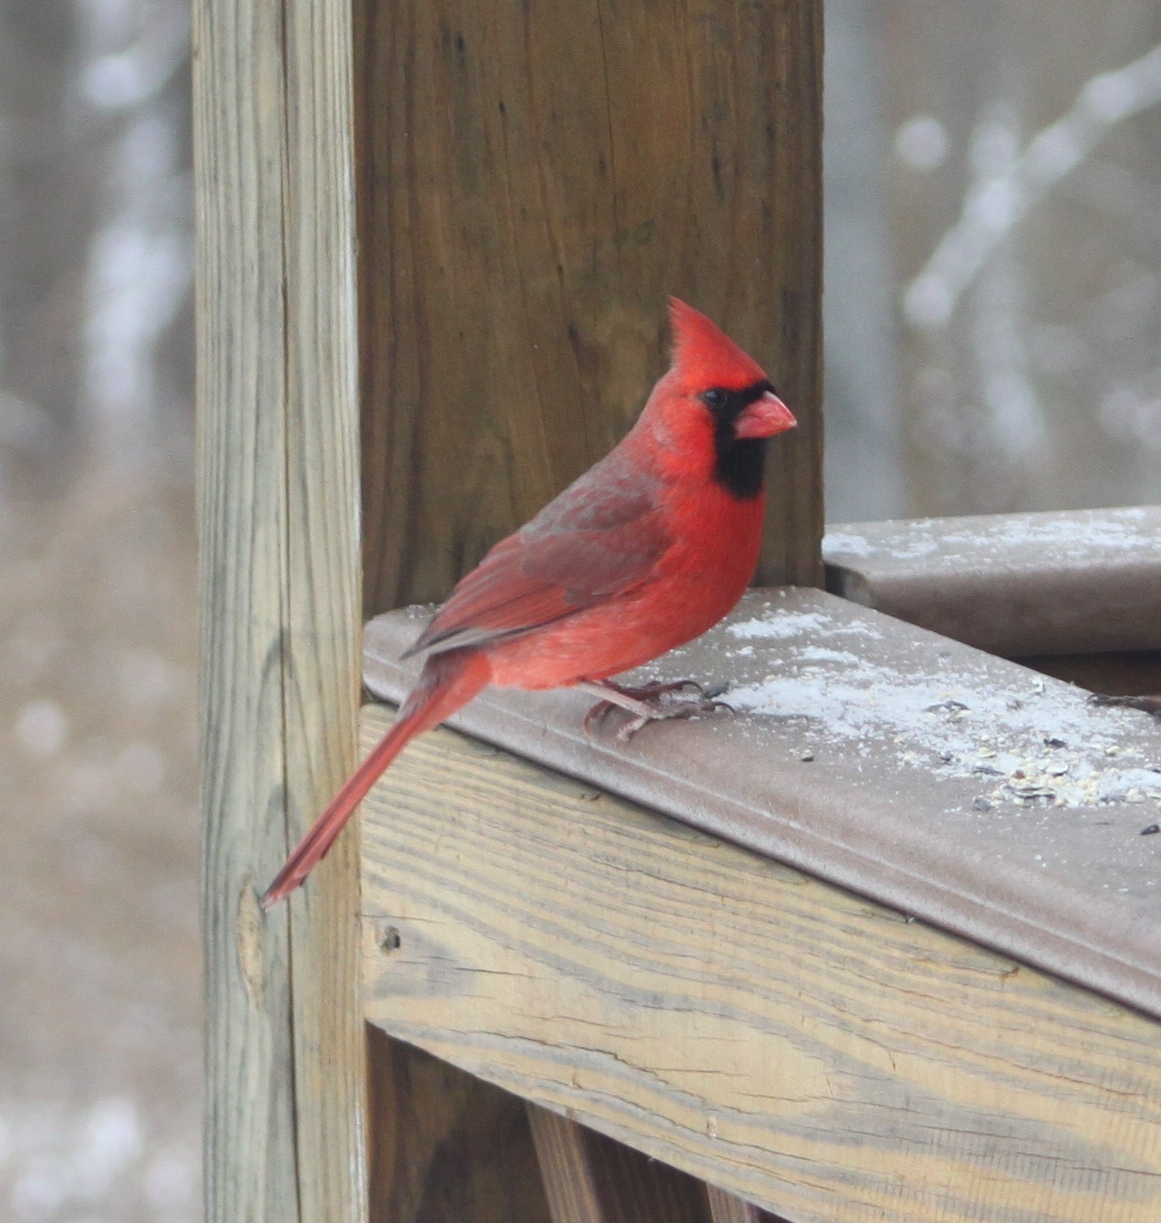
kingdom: Animalia
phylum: Chordata
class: Aves
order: Passeriformes
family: Cardinalidae
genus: Cardinalis
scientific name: Cardinalis cardinalis
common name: Northern cardinal
